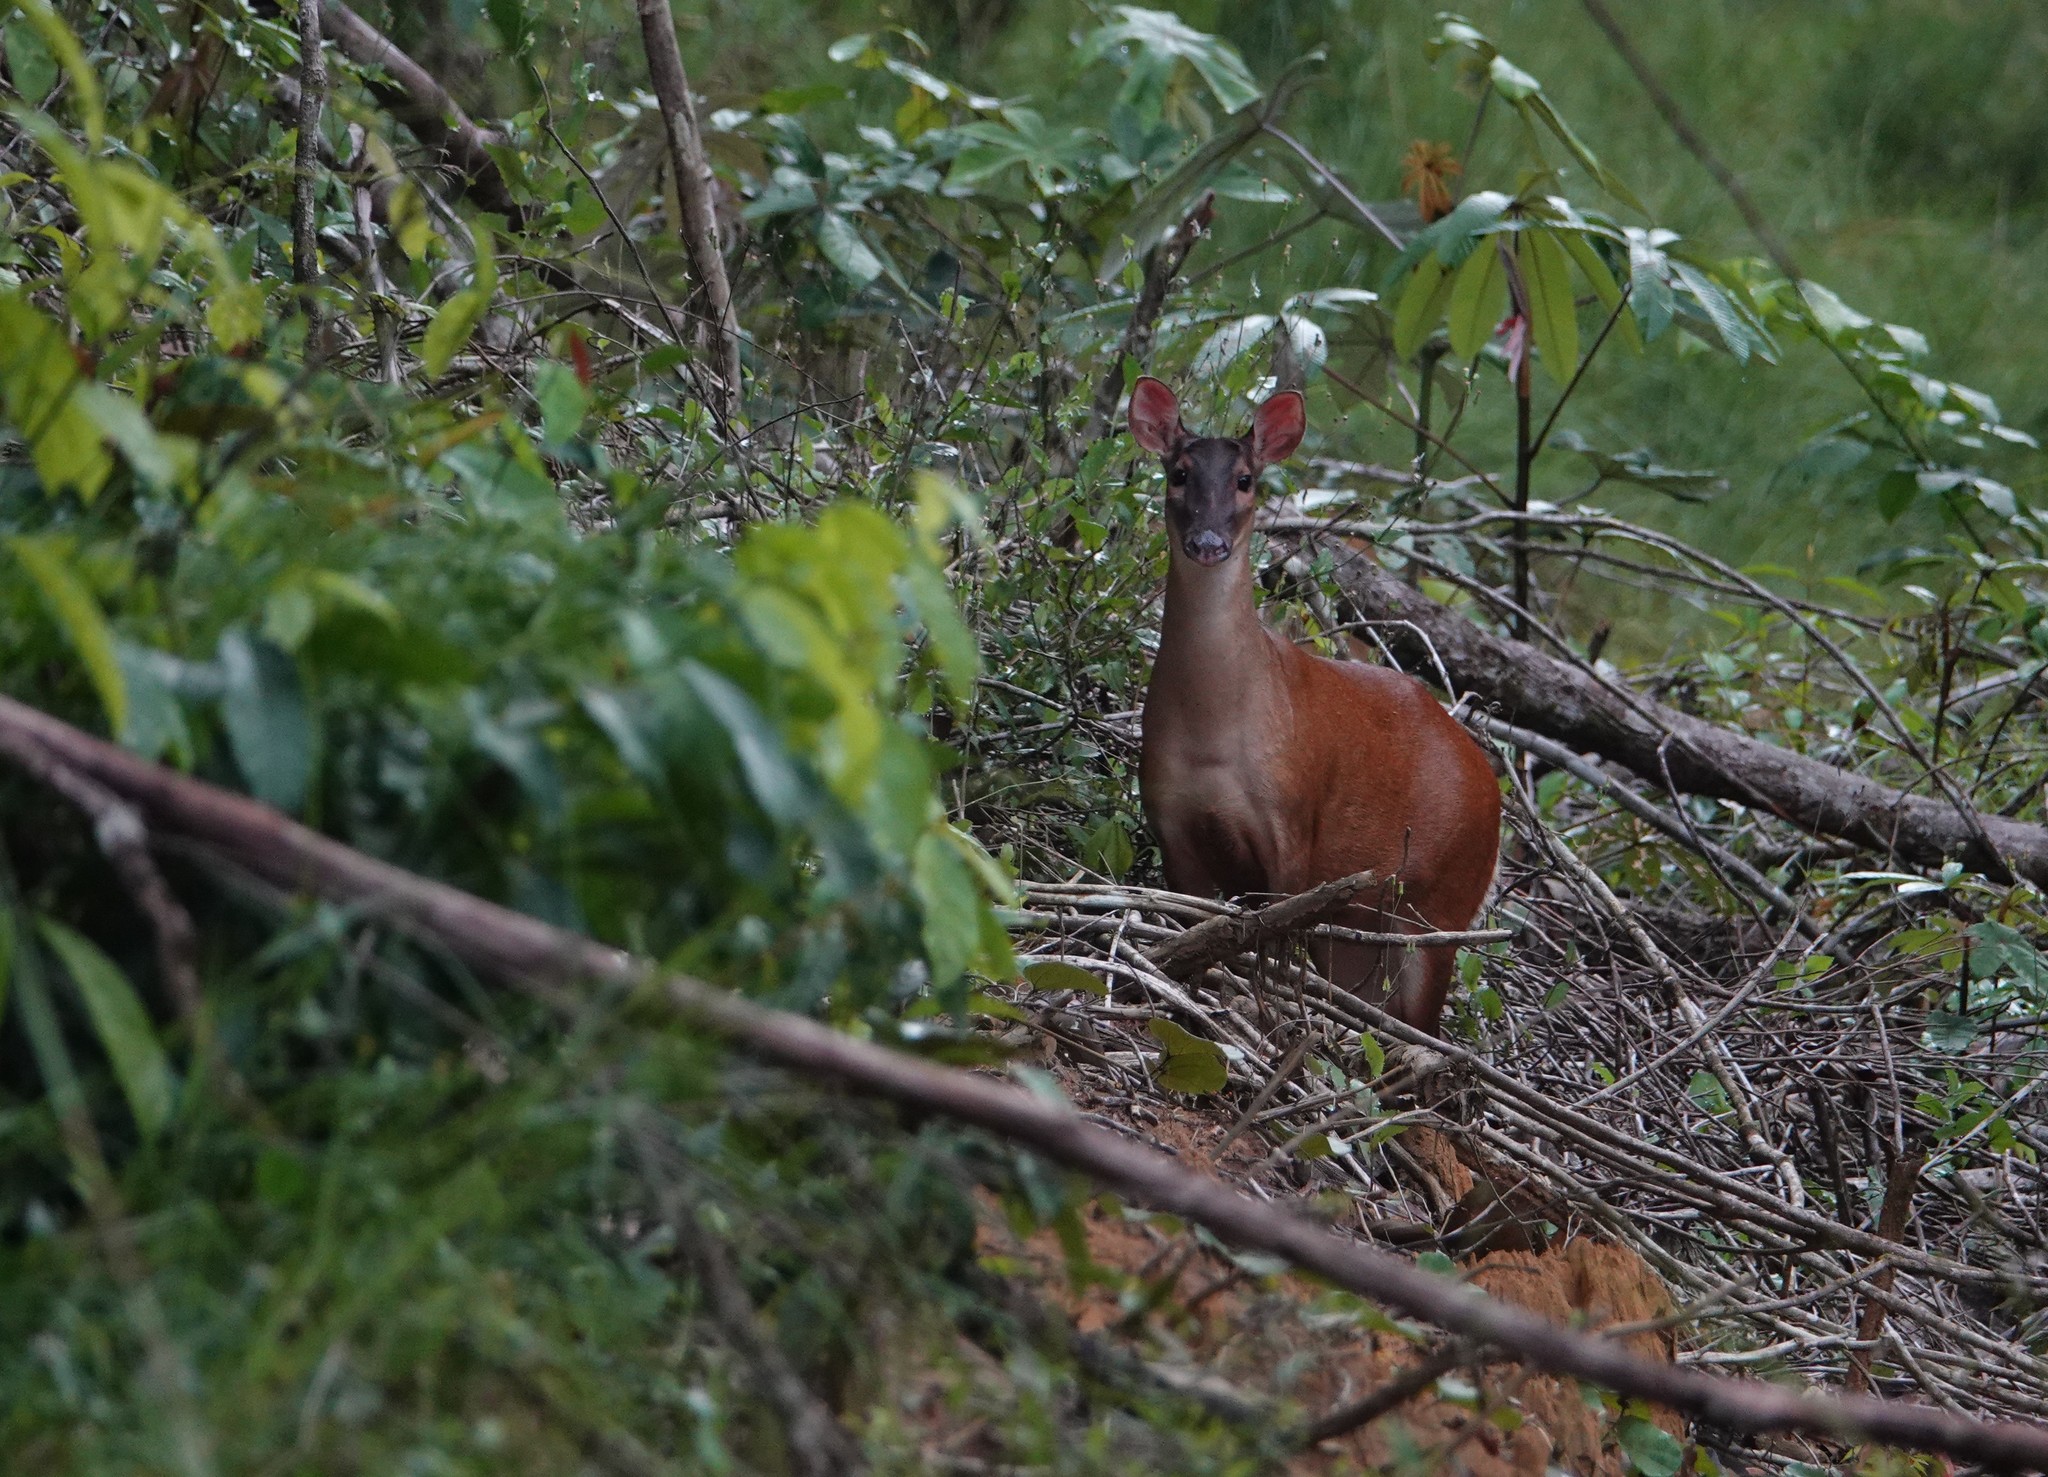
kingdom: Animalia
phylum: Chordata
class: Mammalia
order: Artiodactyla
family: Cervidae
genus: Mazama
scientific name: Mazama americana
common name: Red brocket
